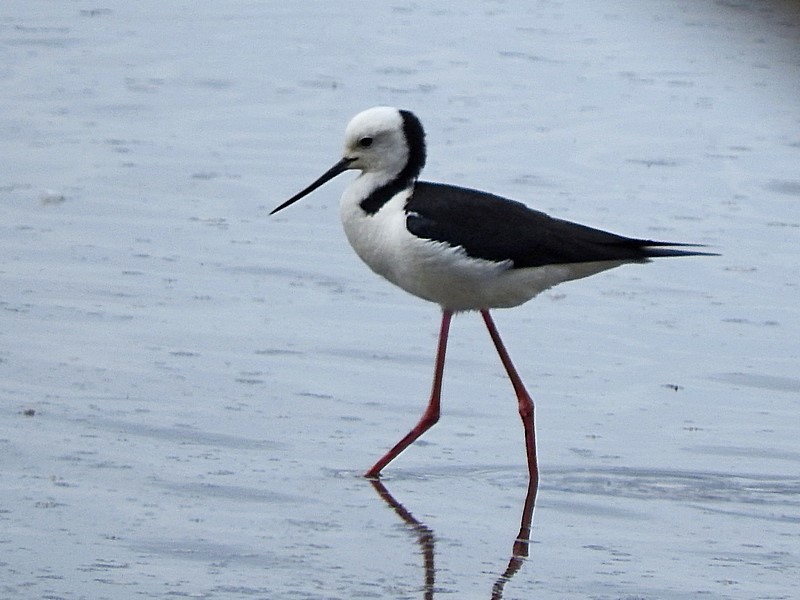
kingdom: Animalia
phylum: Chordata
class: Aves
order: Charadriiformes
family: Recurvirostridae
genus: Himantopus
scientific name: Himantopus leucocephalus
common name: White-headed stilt
